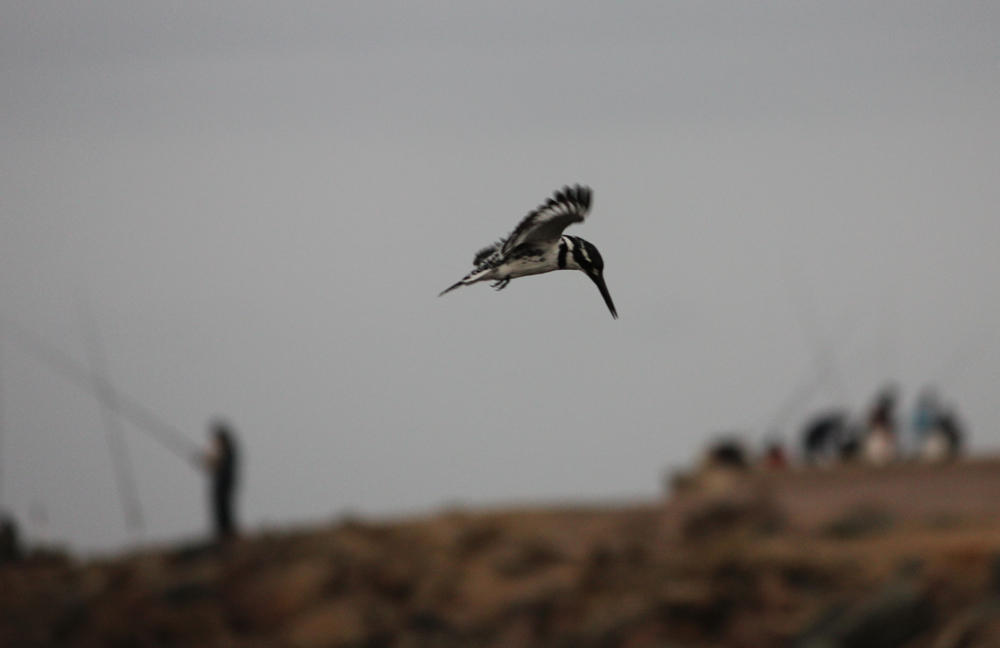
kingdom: Animalia
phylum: Chordata
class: Aves
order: Coraciiformes
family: Alcedinidae
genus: Ceryle
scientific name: Ceryle rudis
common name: Pied kingfisher
